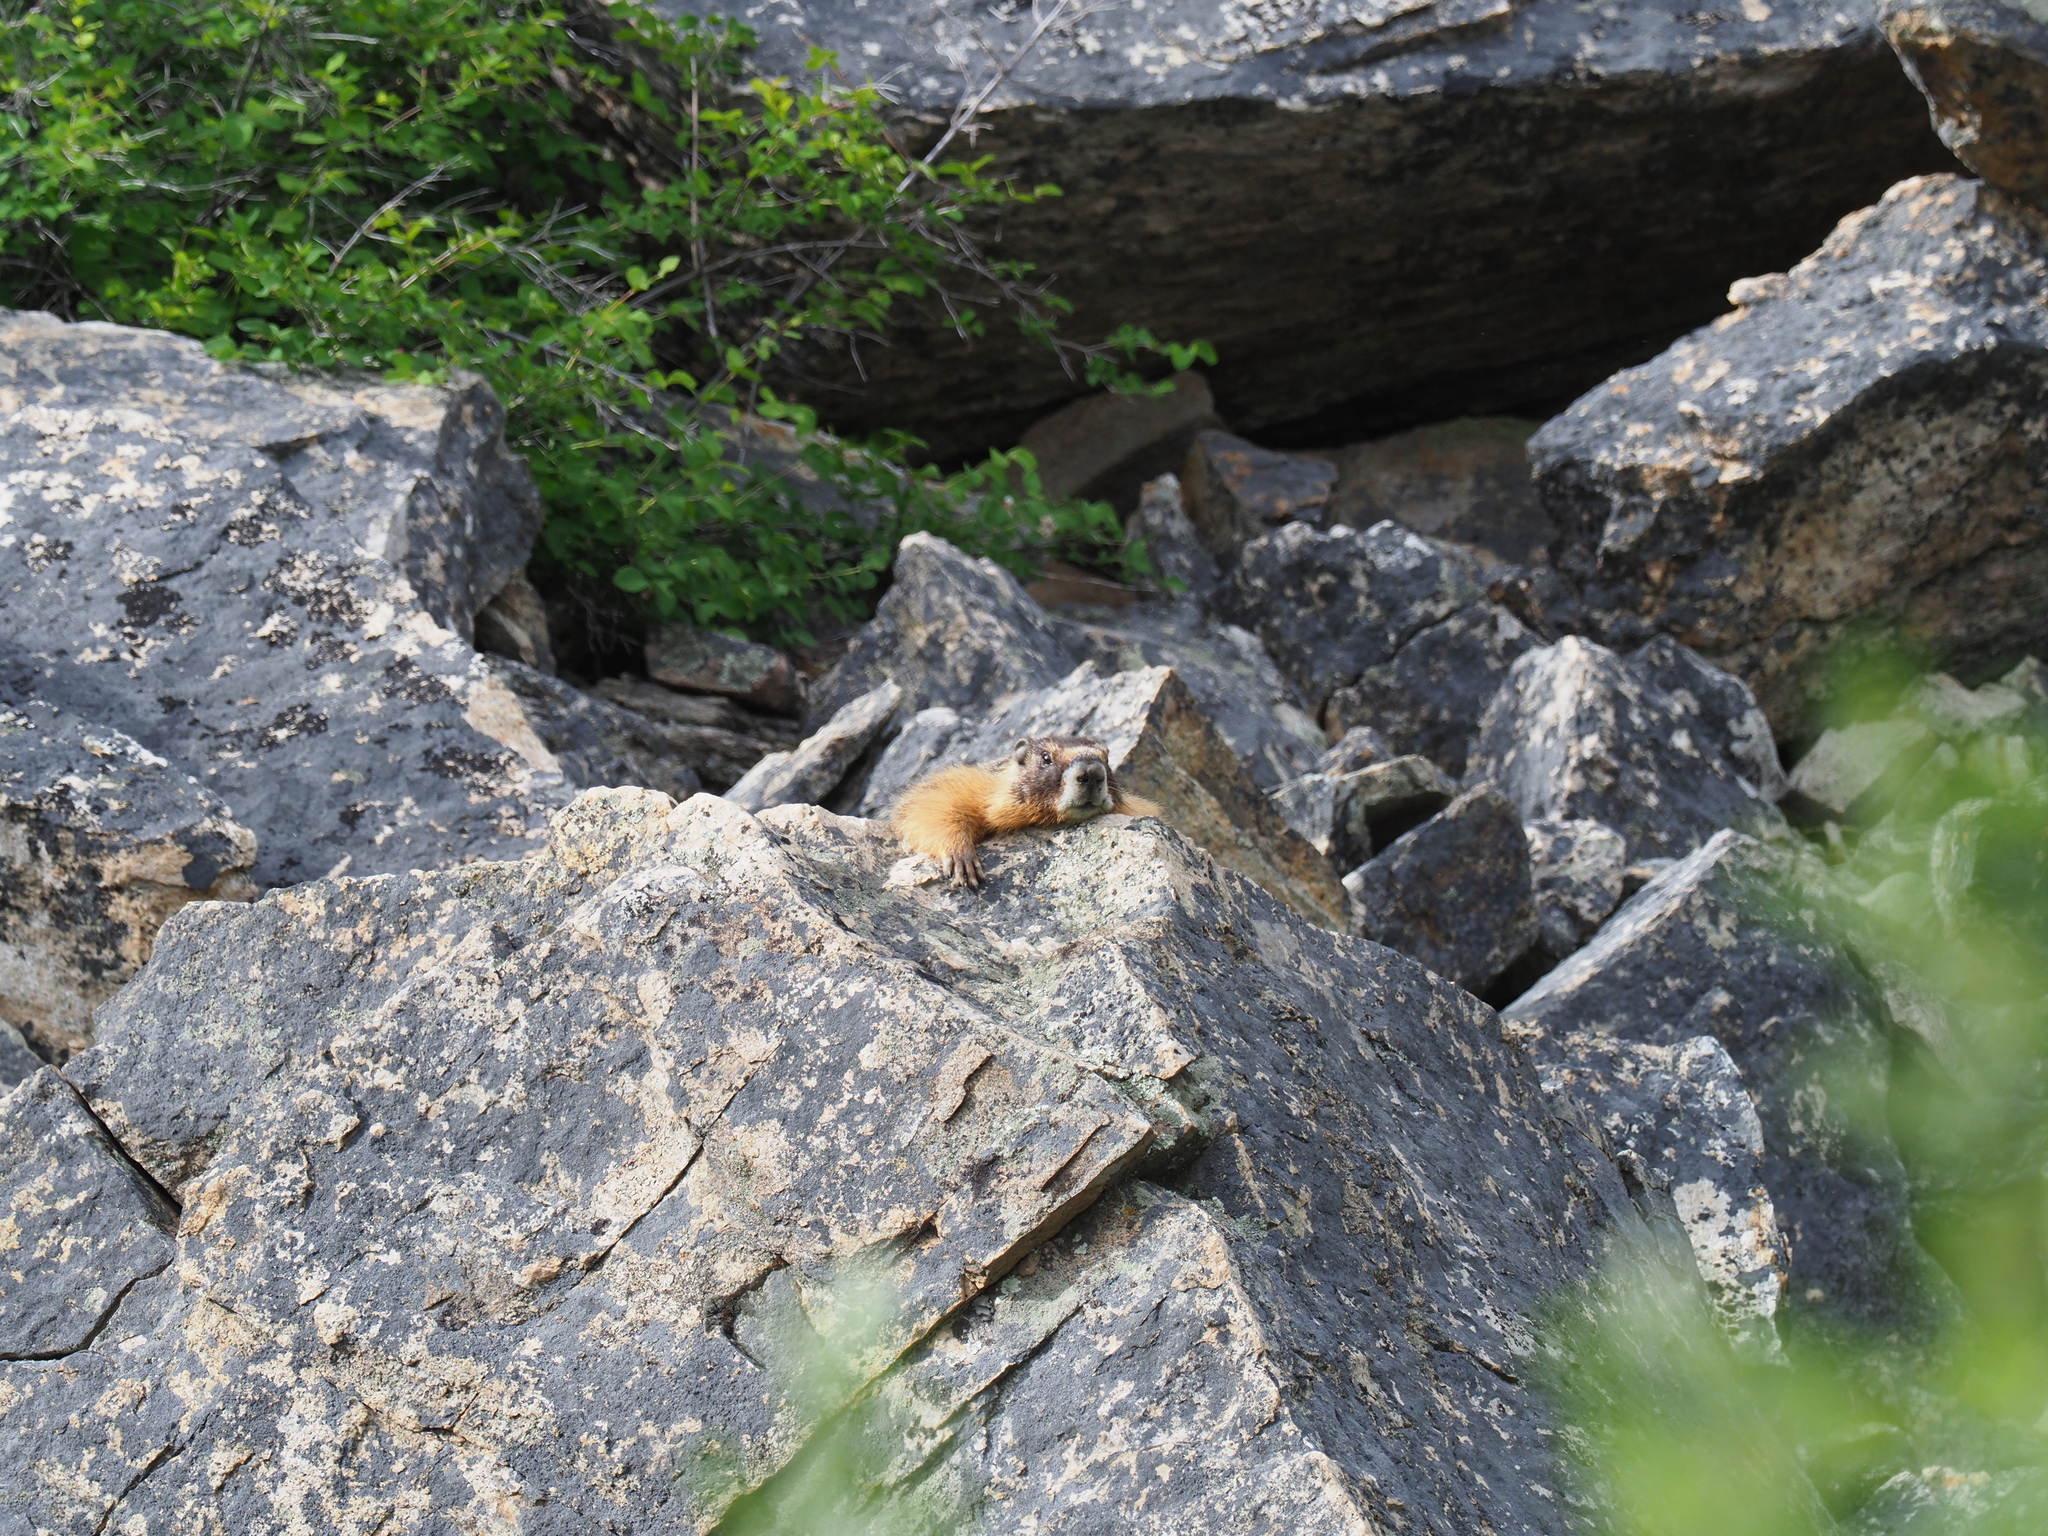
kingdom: Animalia
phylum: Chordata
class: Mammalia
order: Rodentia
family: Sciuridae
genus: Marmota
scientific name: Marmota flaviventris
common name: Yellow-bellied marmot
